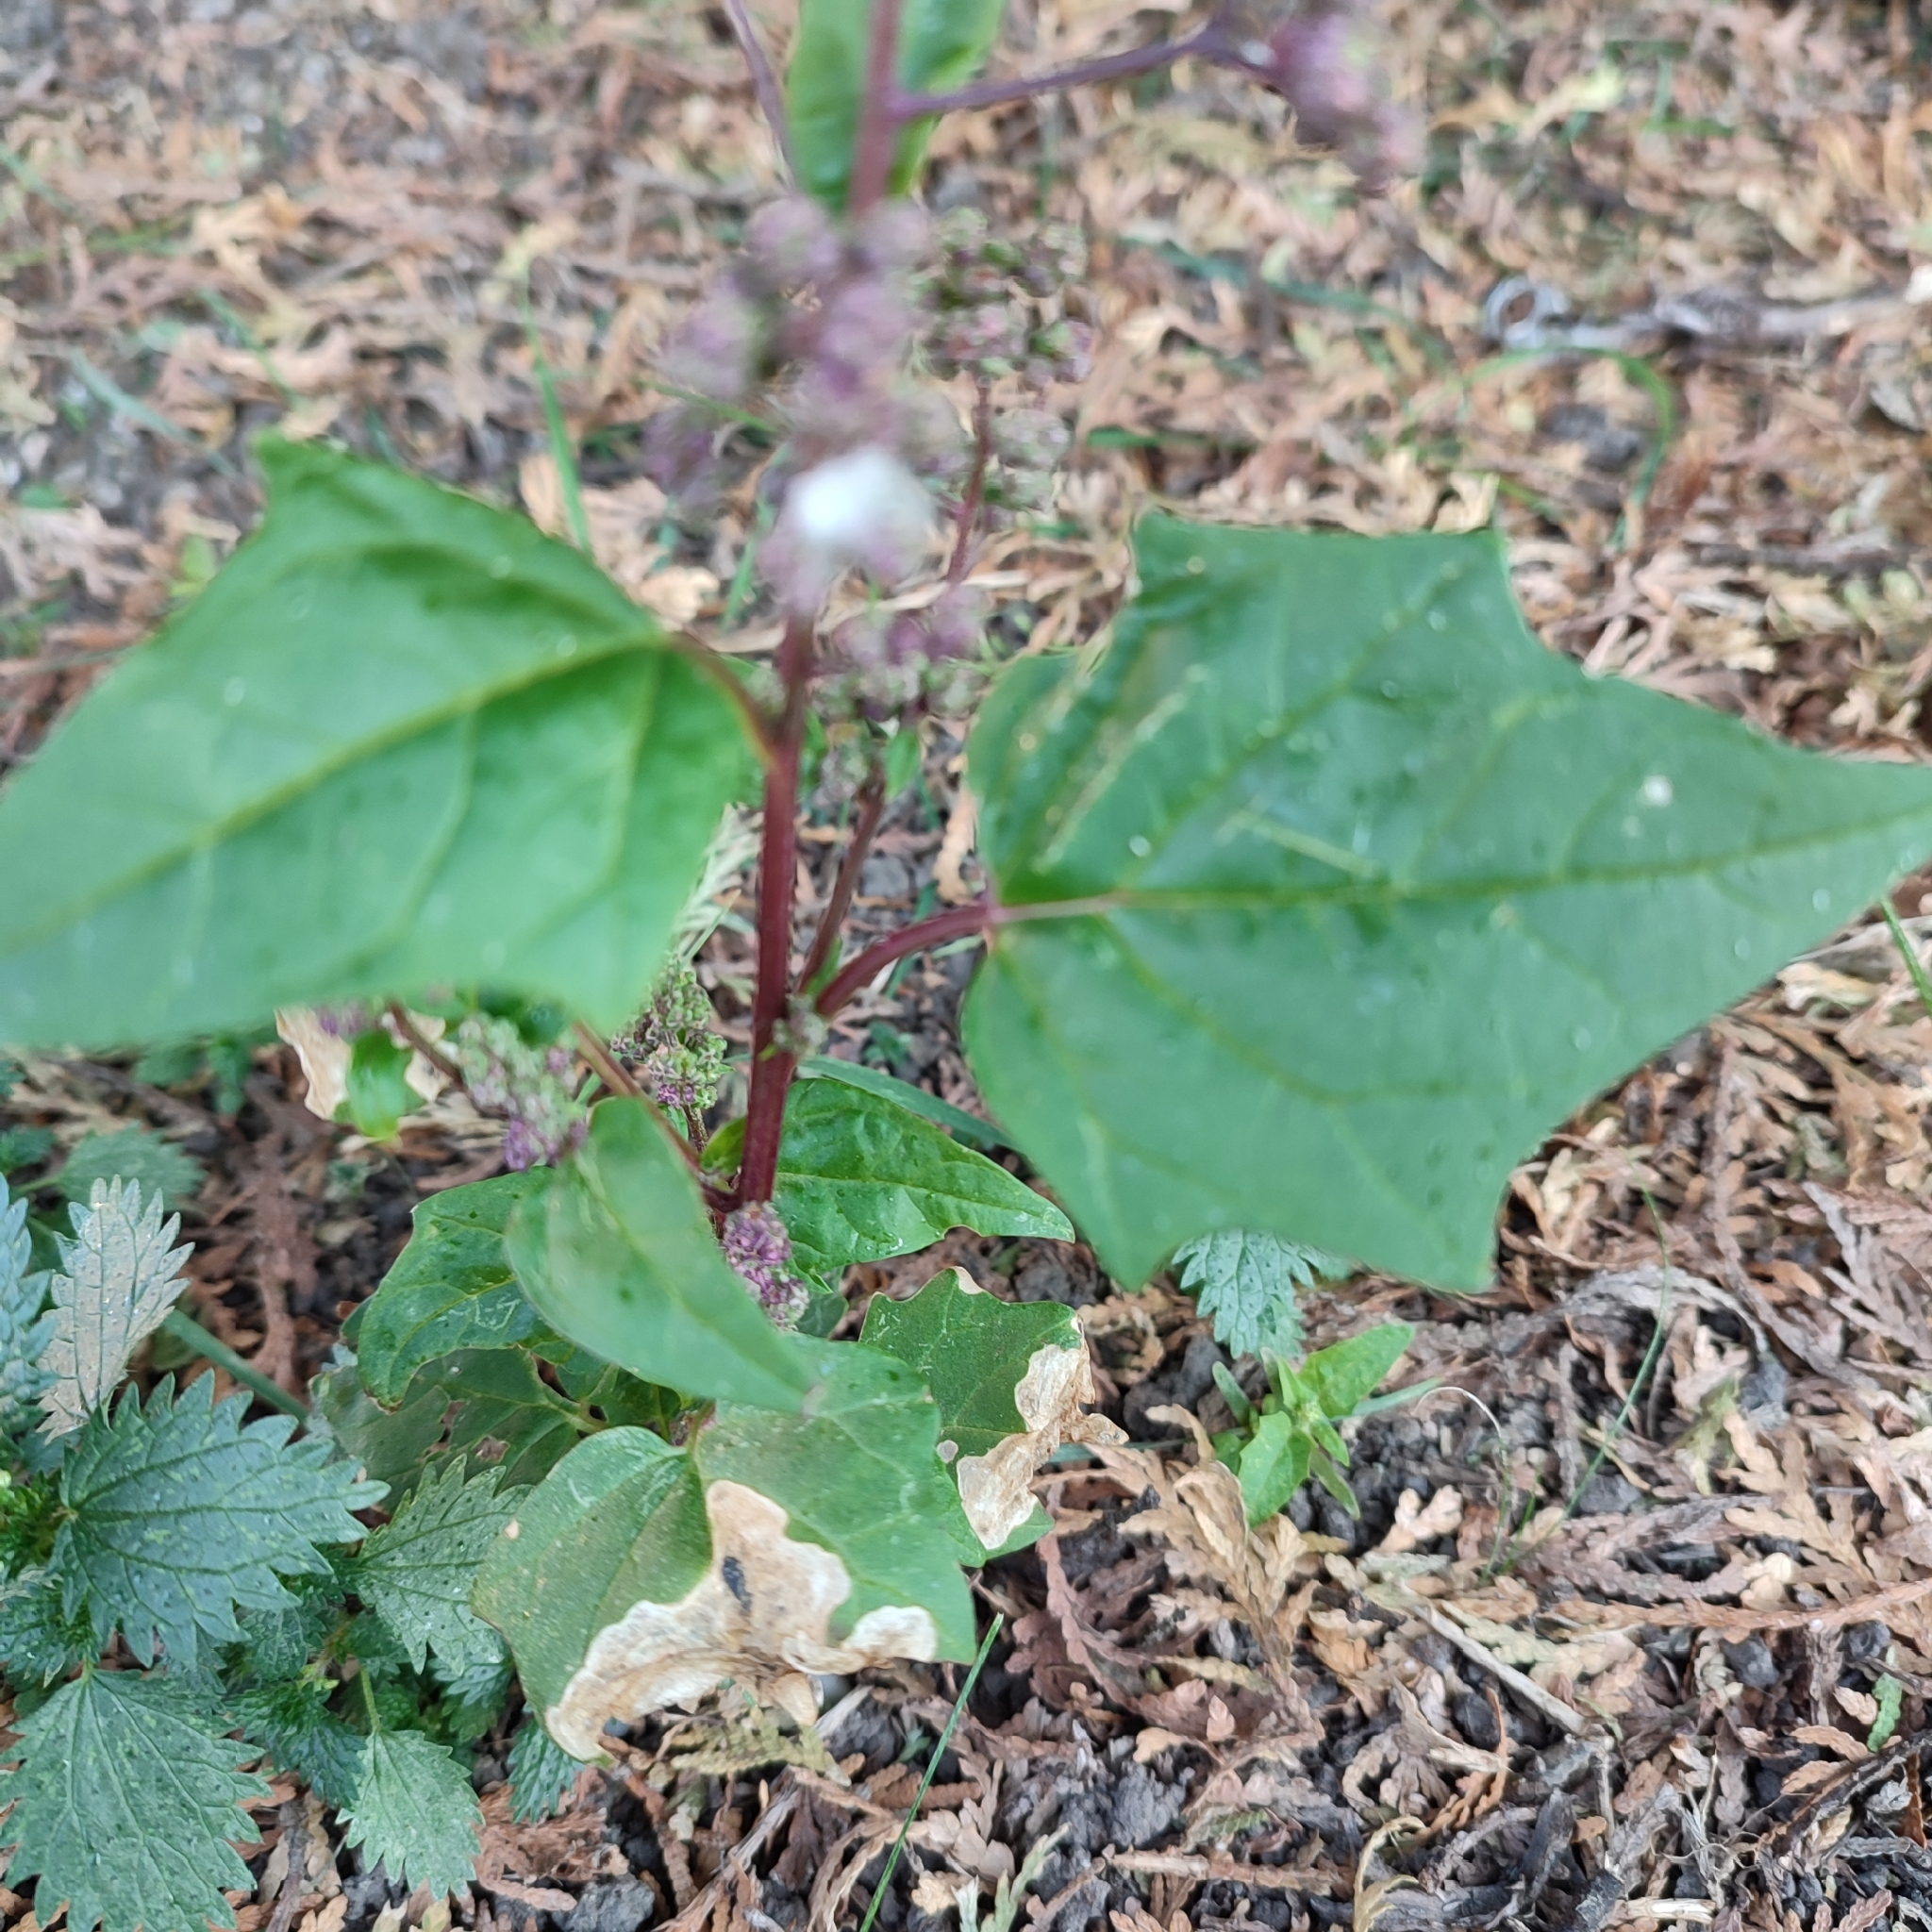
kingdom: Plantae
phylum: Tracheophyta
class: Magnoliopsida
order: Caryophyllales
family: Amaranthaceae
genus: Chenopodiastrum
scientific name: Chenopodiastrum hybridum
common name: Mapleleaf goosefoot
